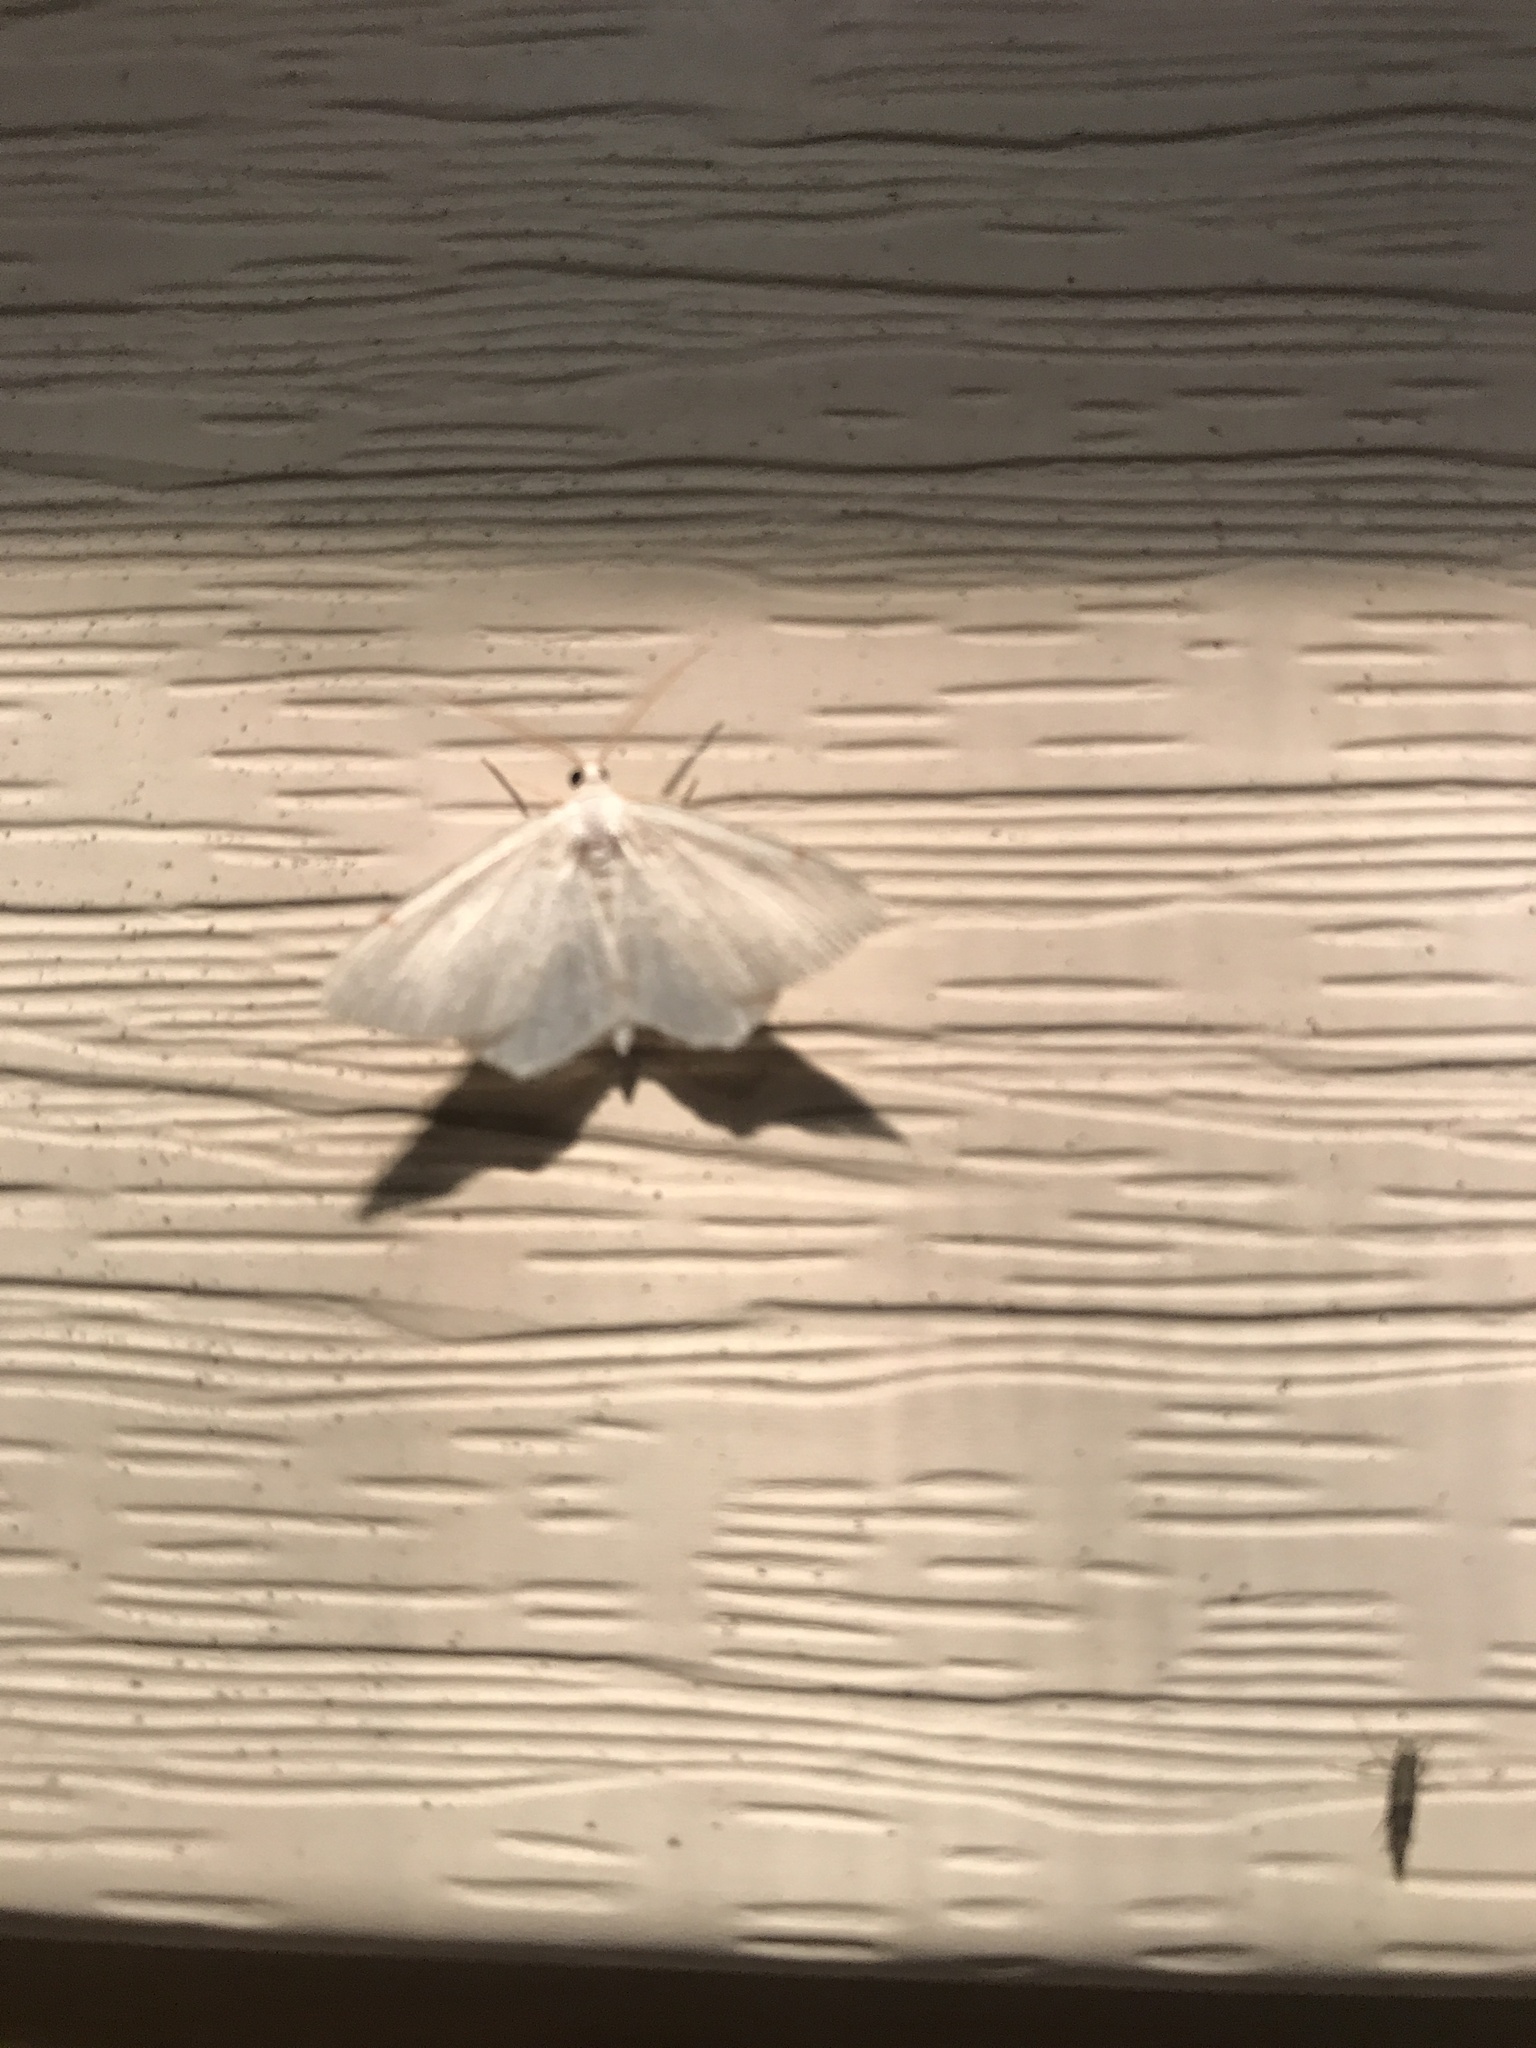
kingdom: Animalia
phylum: Arthropoda
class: Insecta
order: Lepidoptera
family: Geometridae
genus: Macaria
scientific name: Macaria pustularia
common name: Lesser maple spanworm moth
